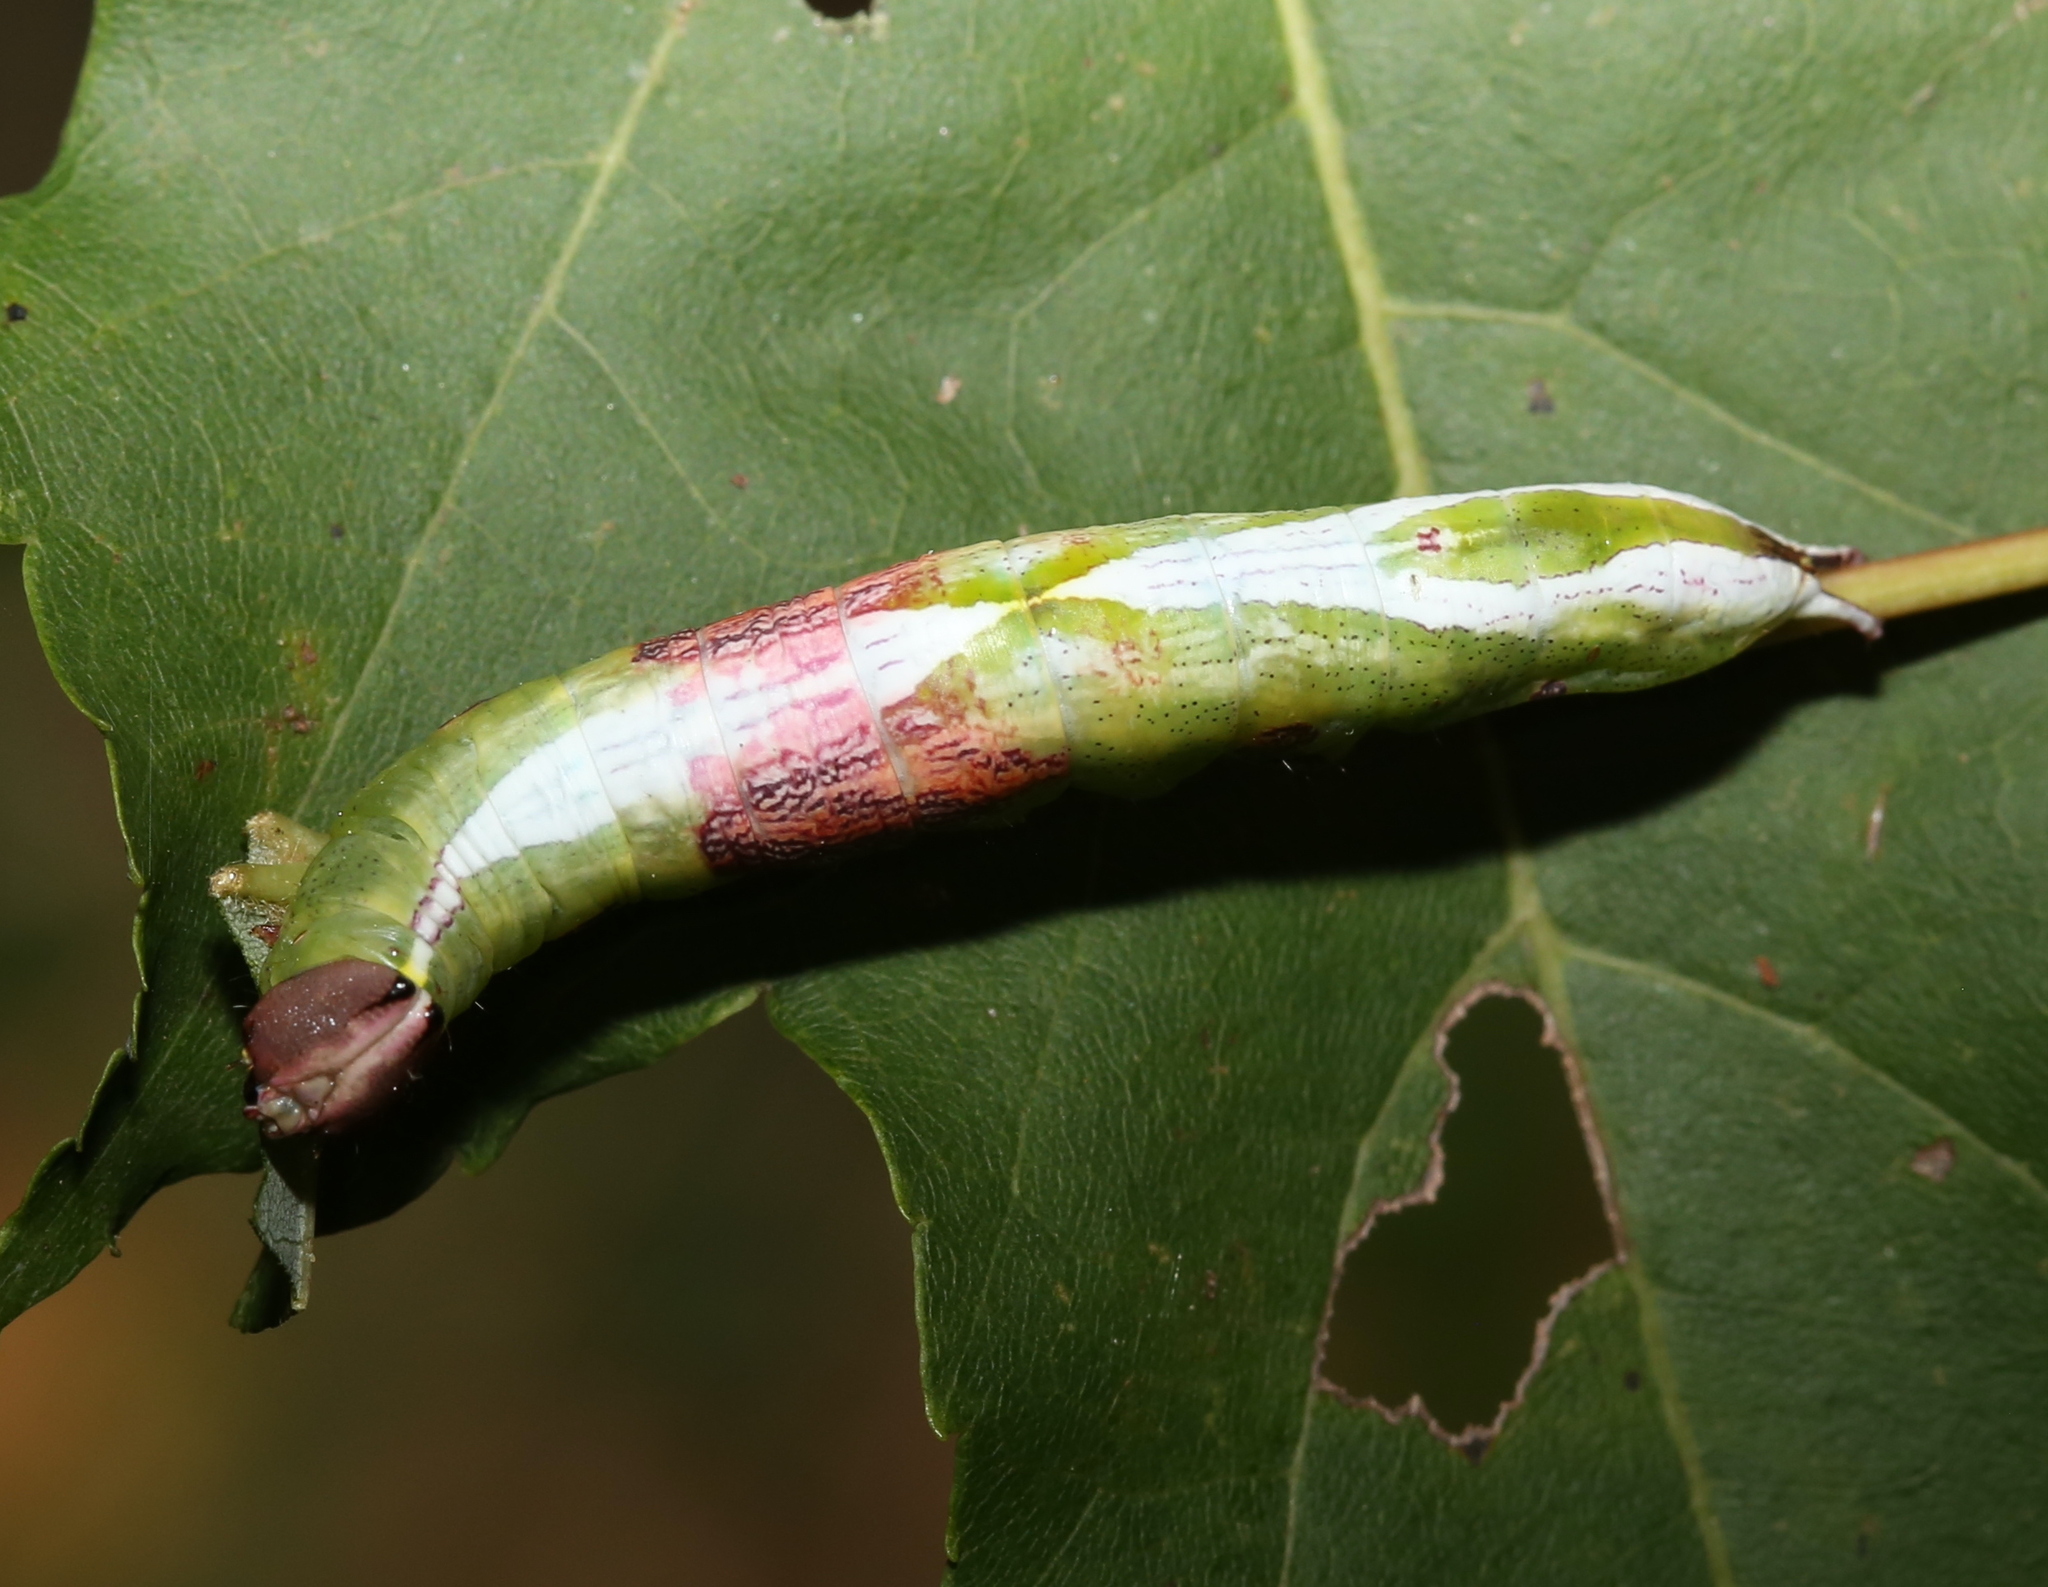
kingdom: Animalia
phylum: Arthropoda
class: Insecta
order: Lepidoptera
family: Notodontidae
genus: Disphragis
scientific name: Disphragis Cecrita biundata
